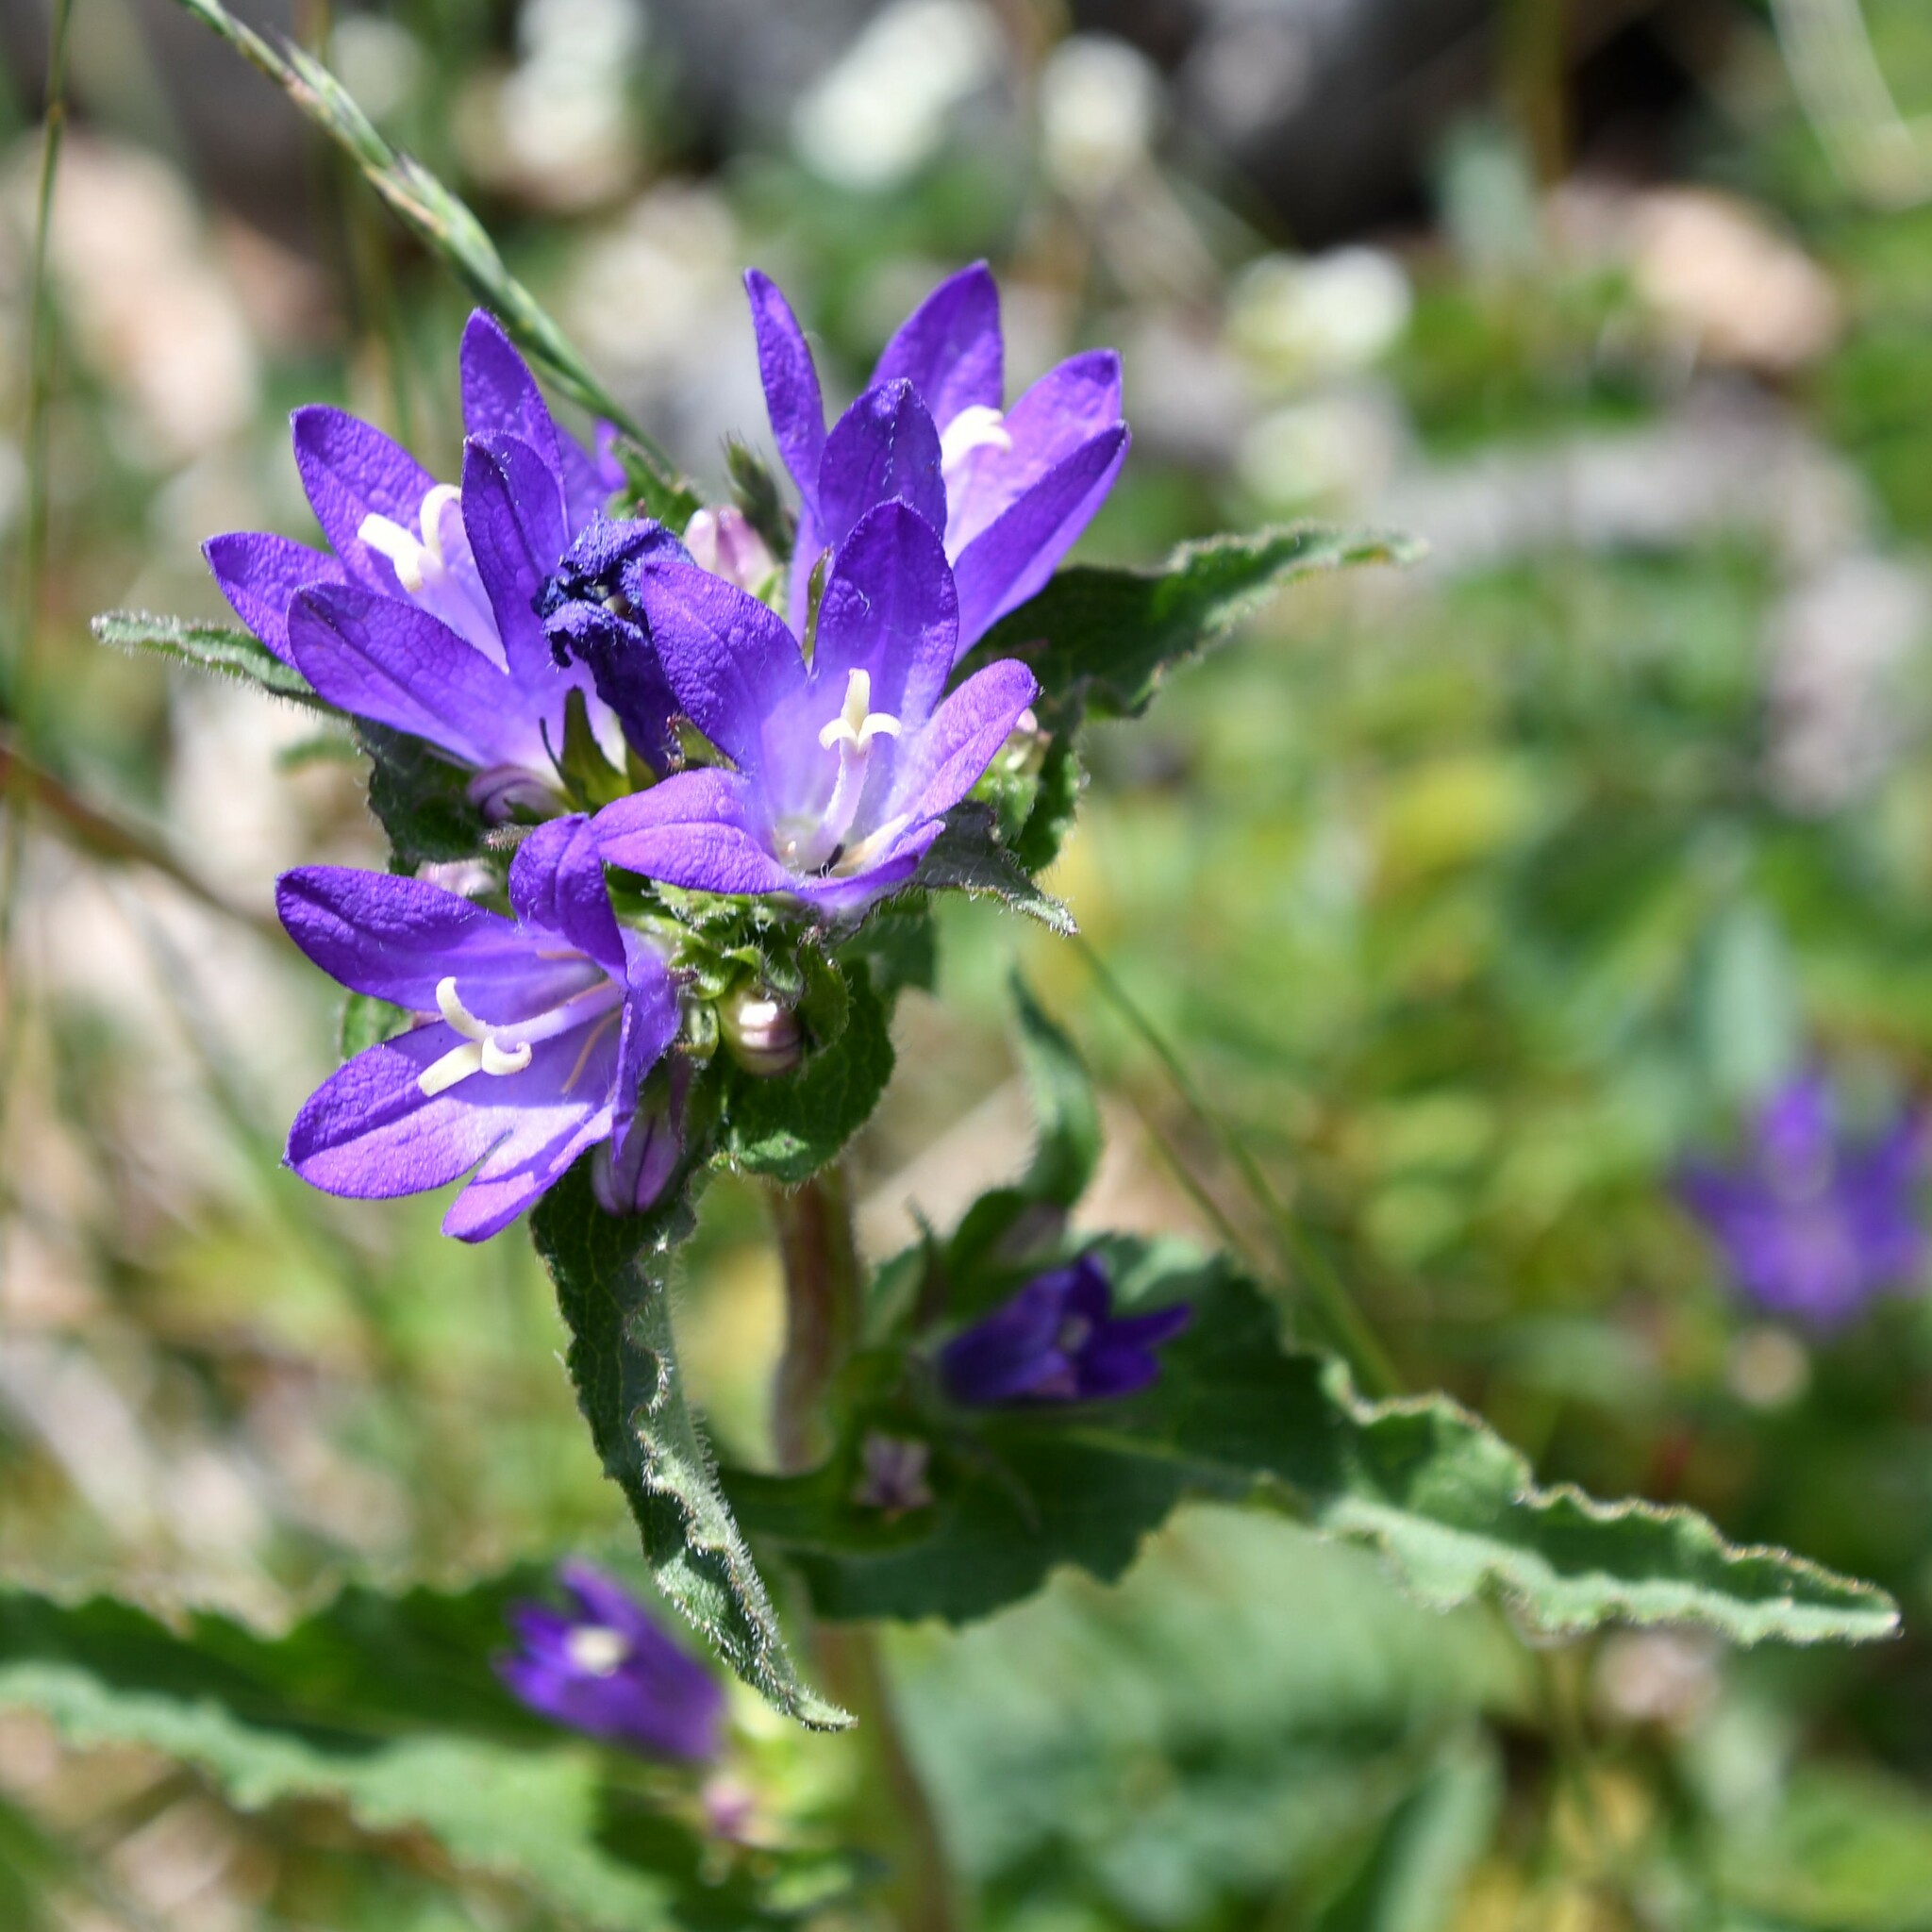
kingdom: Plantae
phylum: Tracheophyta
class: Magnoliopsida
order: Asterales
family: Campanulaceae
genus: Campanula
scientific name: Campanula glomerata
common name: Clustered bellflower
